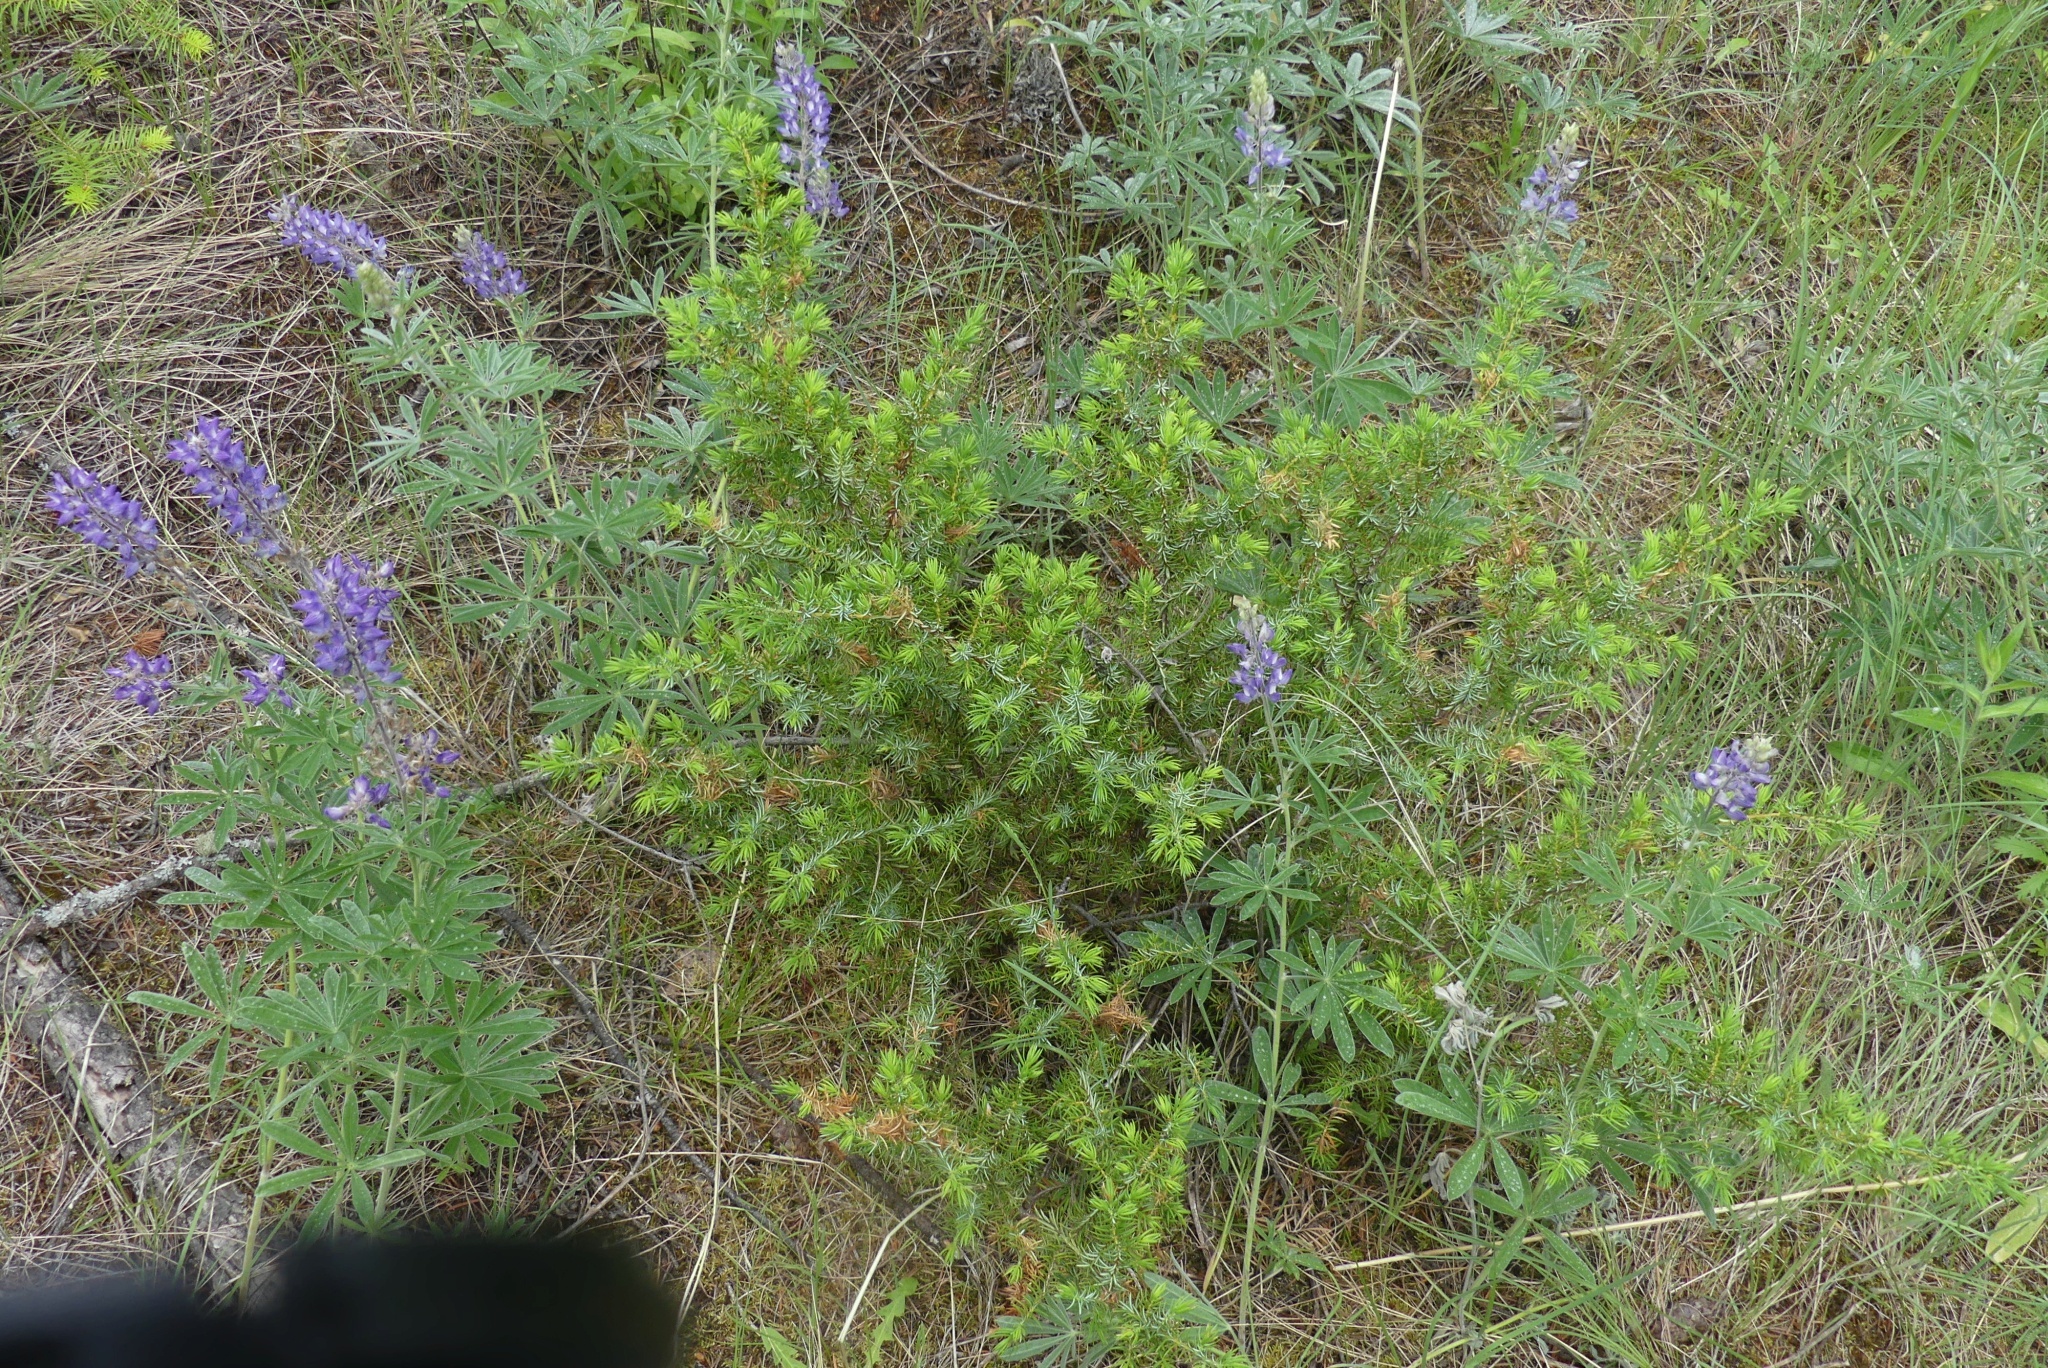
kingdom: Plantae
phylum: Tracheophyta
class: Pinopsida
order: Pinales
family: Cupressaceae
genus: Juniperus
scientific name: Juniperus communis
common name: Common juniper
